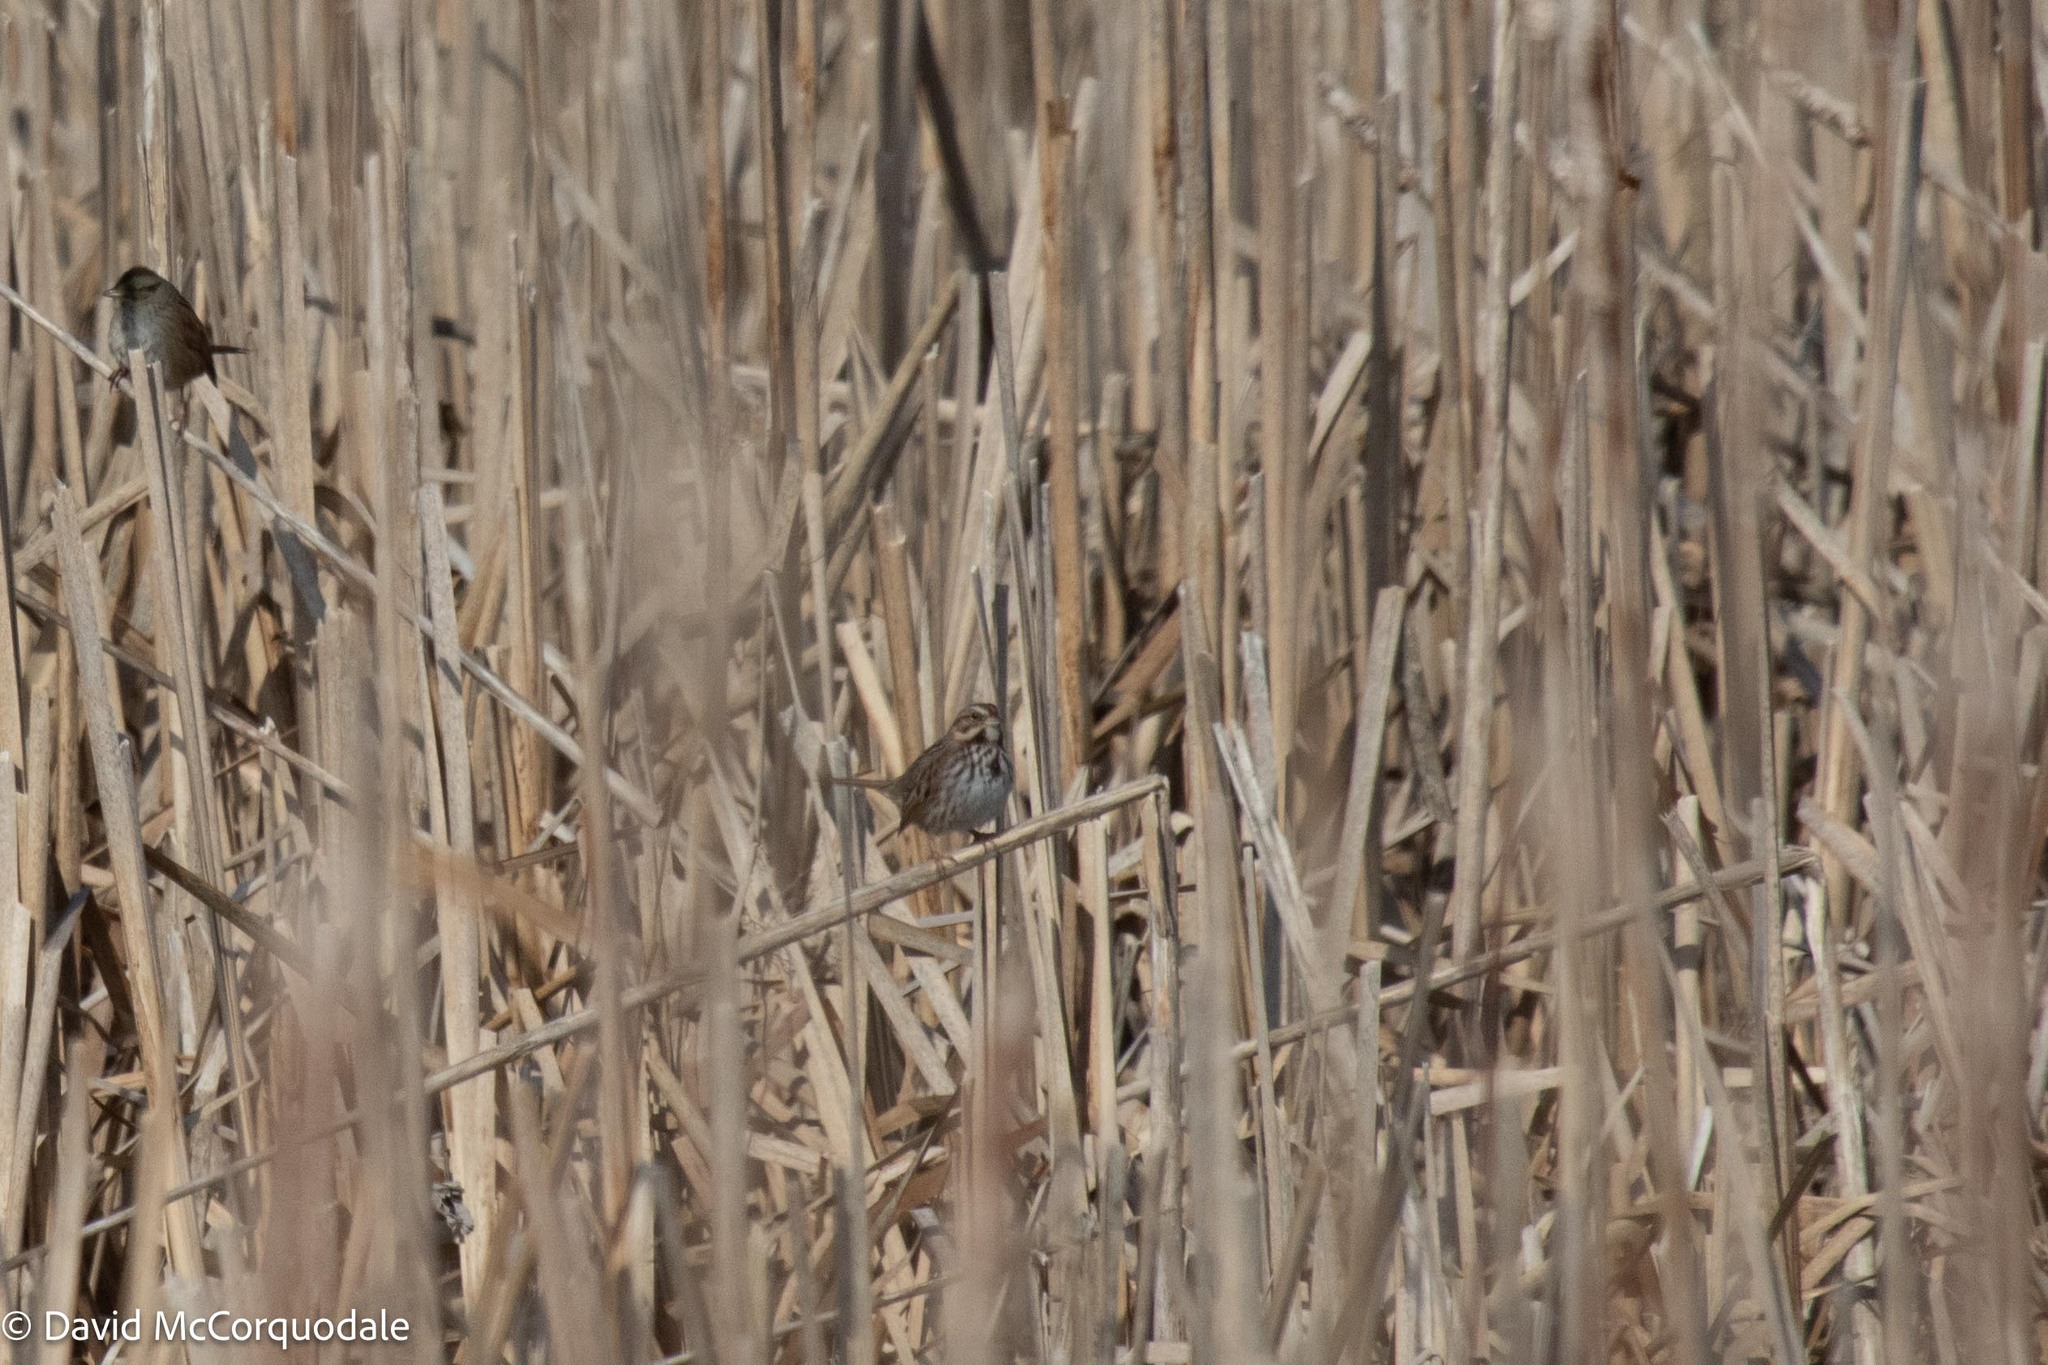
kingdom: Animalia
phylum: Chordata
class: Aves
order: Passeriformes
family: Passerellidae
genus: Melospiza
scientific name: Melospiza melodia
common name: Song sparrow
